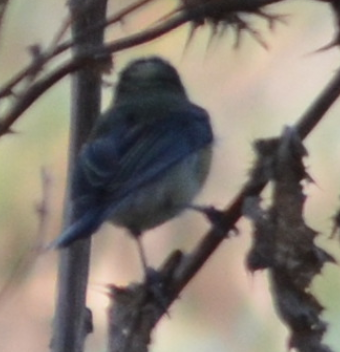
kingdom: Animalia
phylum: Chordata
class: Aves
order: Passeriformes
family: Paridae
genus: Periparus
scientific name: Periparus ater
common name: Coal tit
